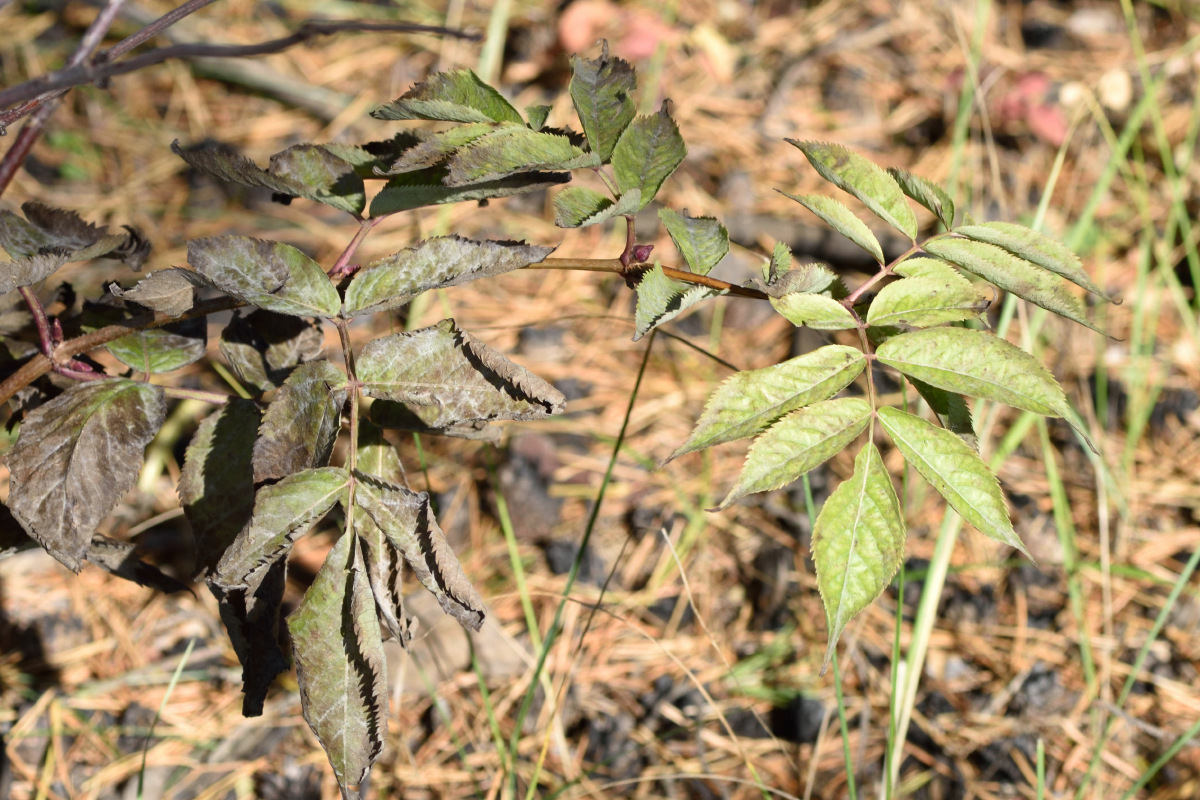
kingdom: Plantae
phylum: Tracheophyta
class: Magnoliopsida
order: Dipsacales
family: Viburnaceae
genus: Sambucus
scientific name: Sambucus racemosa
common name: Red-berried elder
